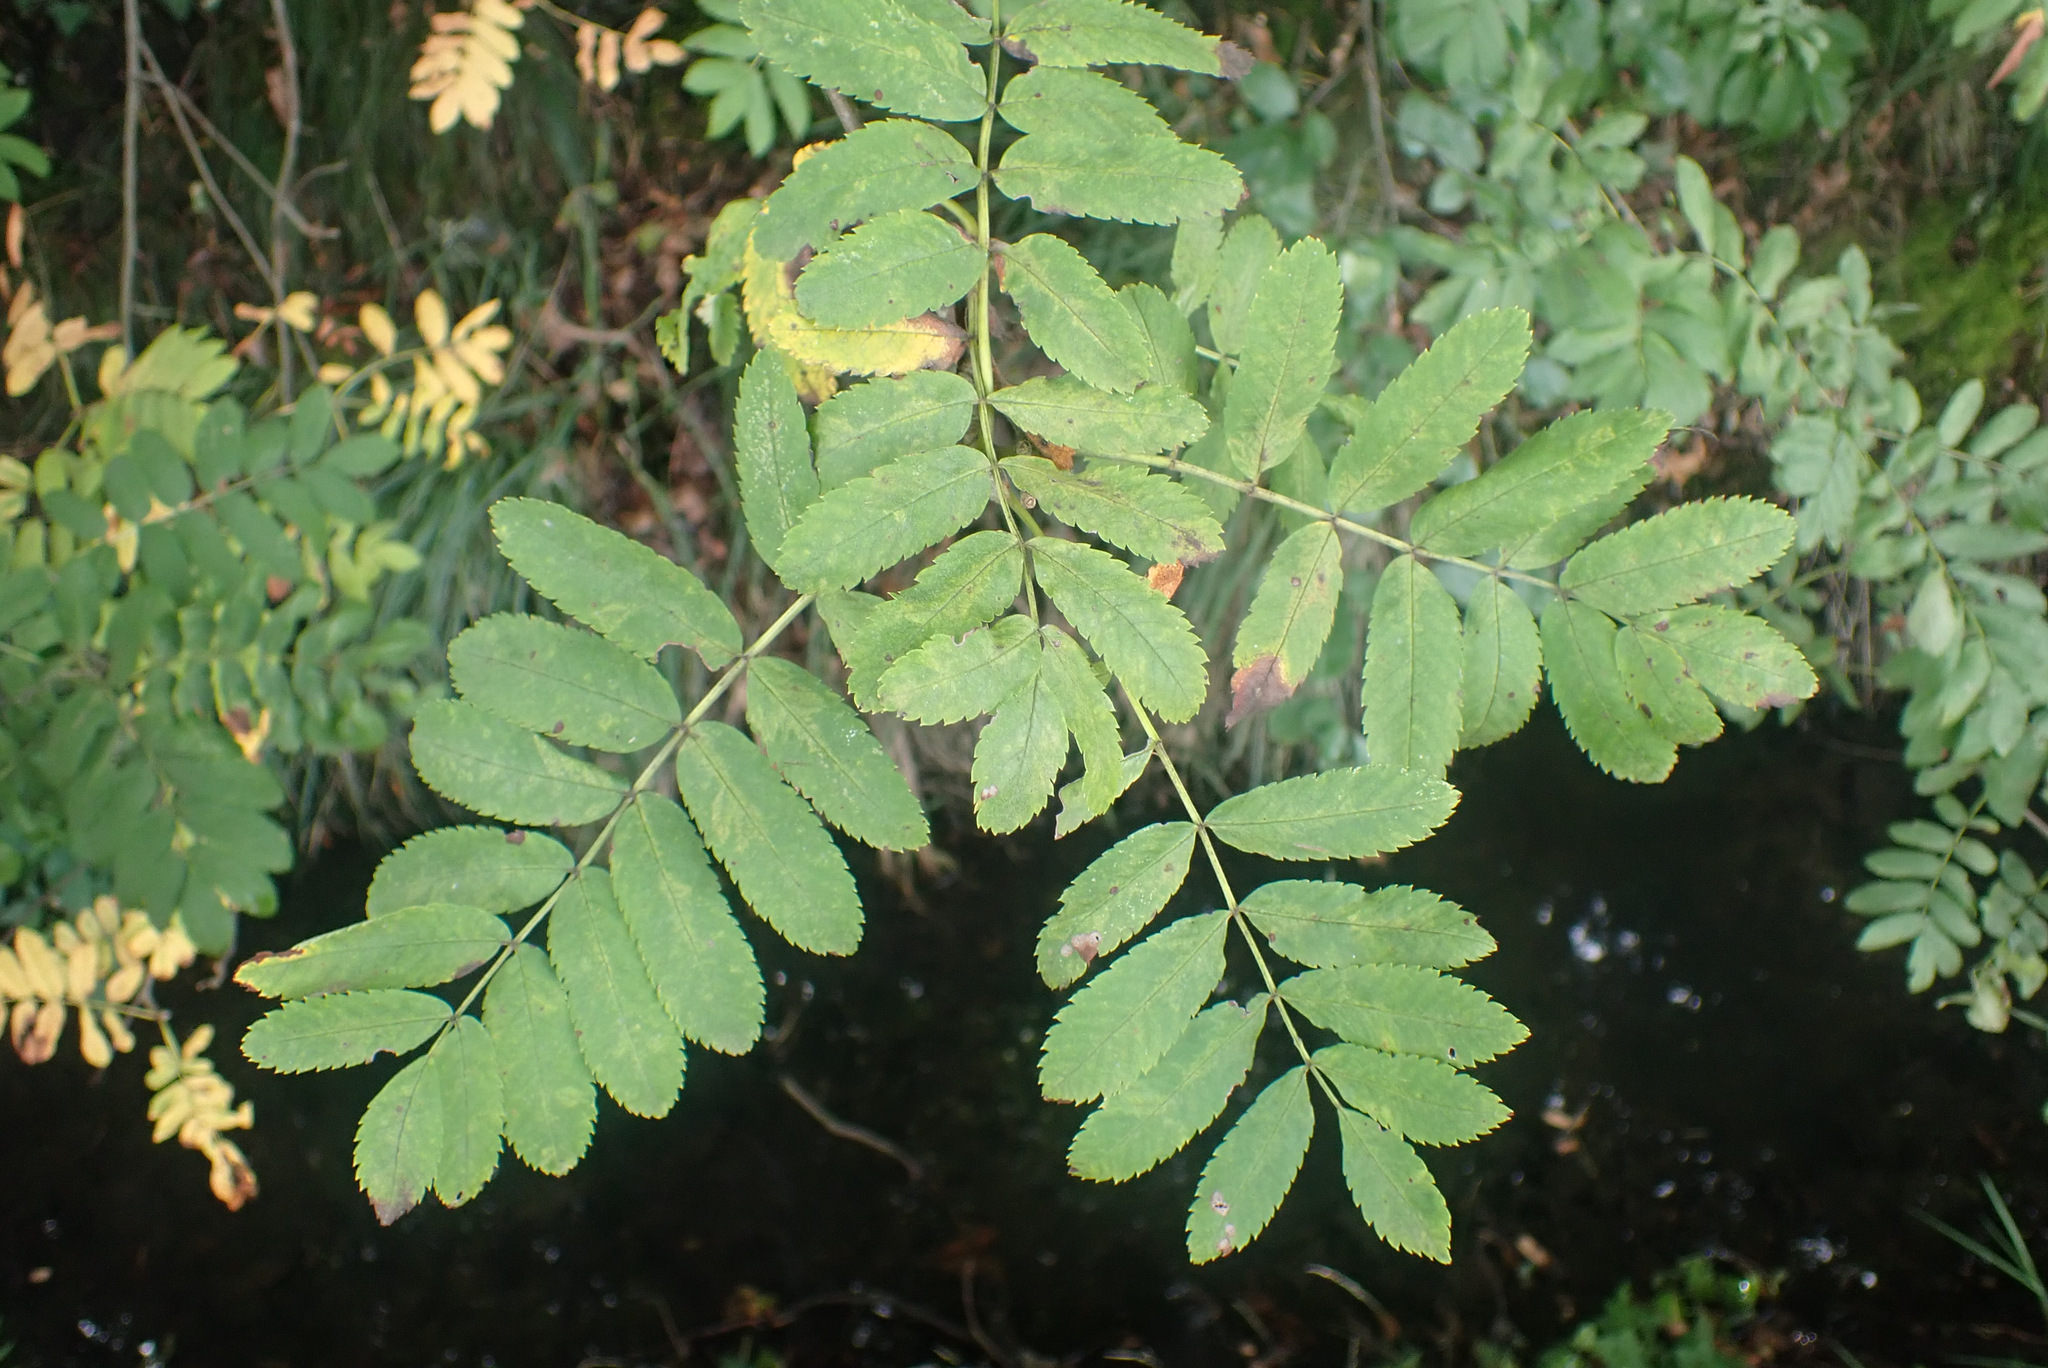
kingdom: Plantae
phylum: Tracheophyta
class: Magnoliopsida
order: Rosales
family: Rosaceae
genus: Sorbus
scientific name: Sorbus aucuparia
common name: Rowan
